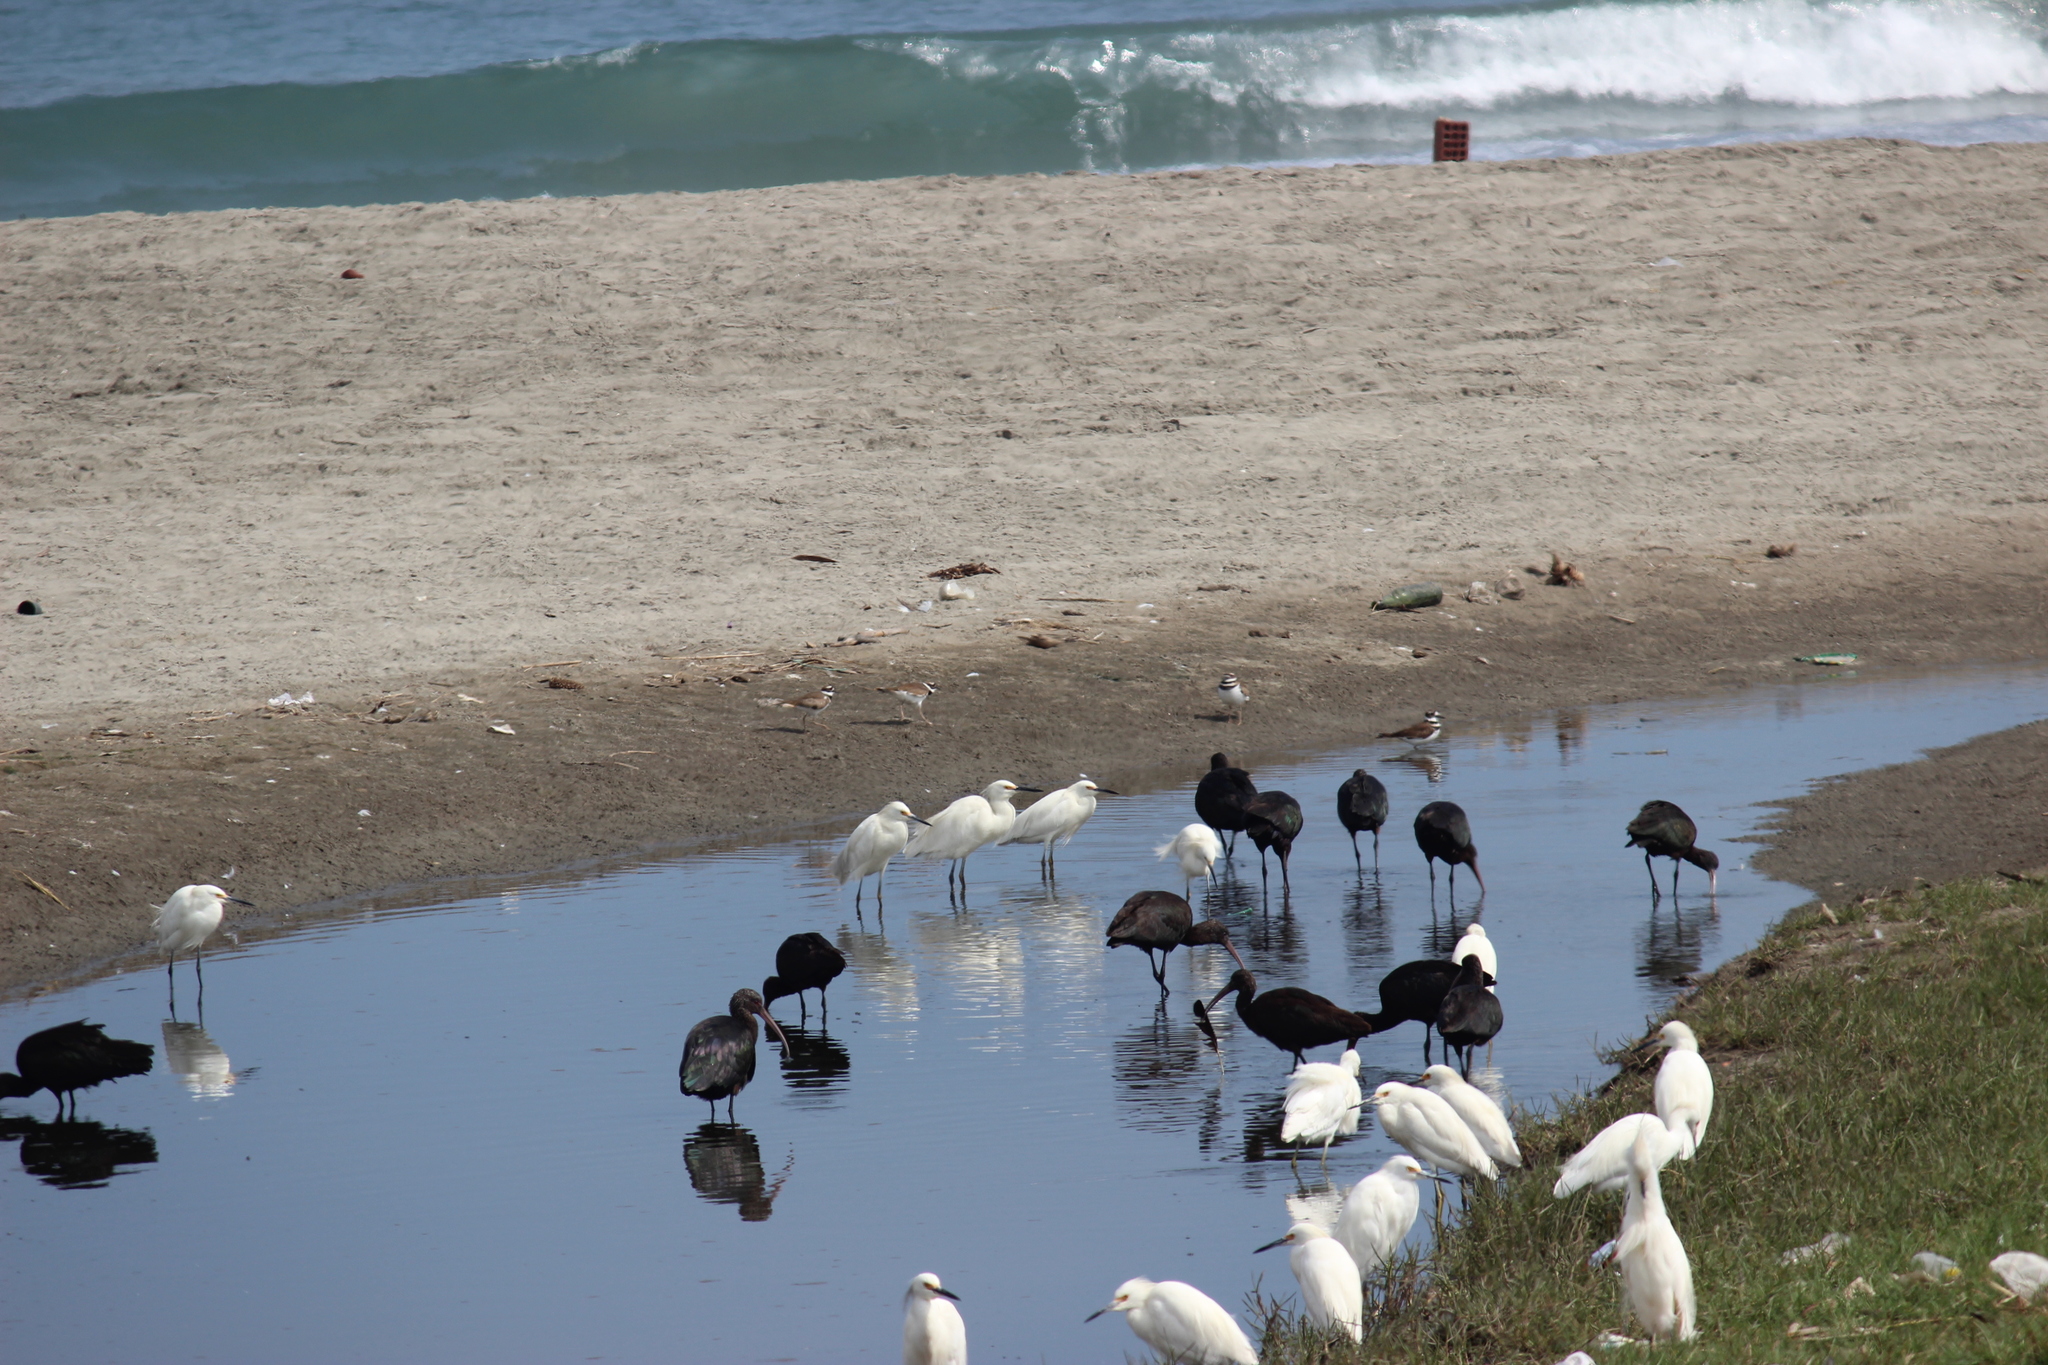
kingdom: Animalia
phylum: Chordata
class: Aves
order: Charadriiformes
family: Charadriidae
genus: Charadrius
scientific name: Charadrius vociferus
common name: Killdeer
